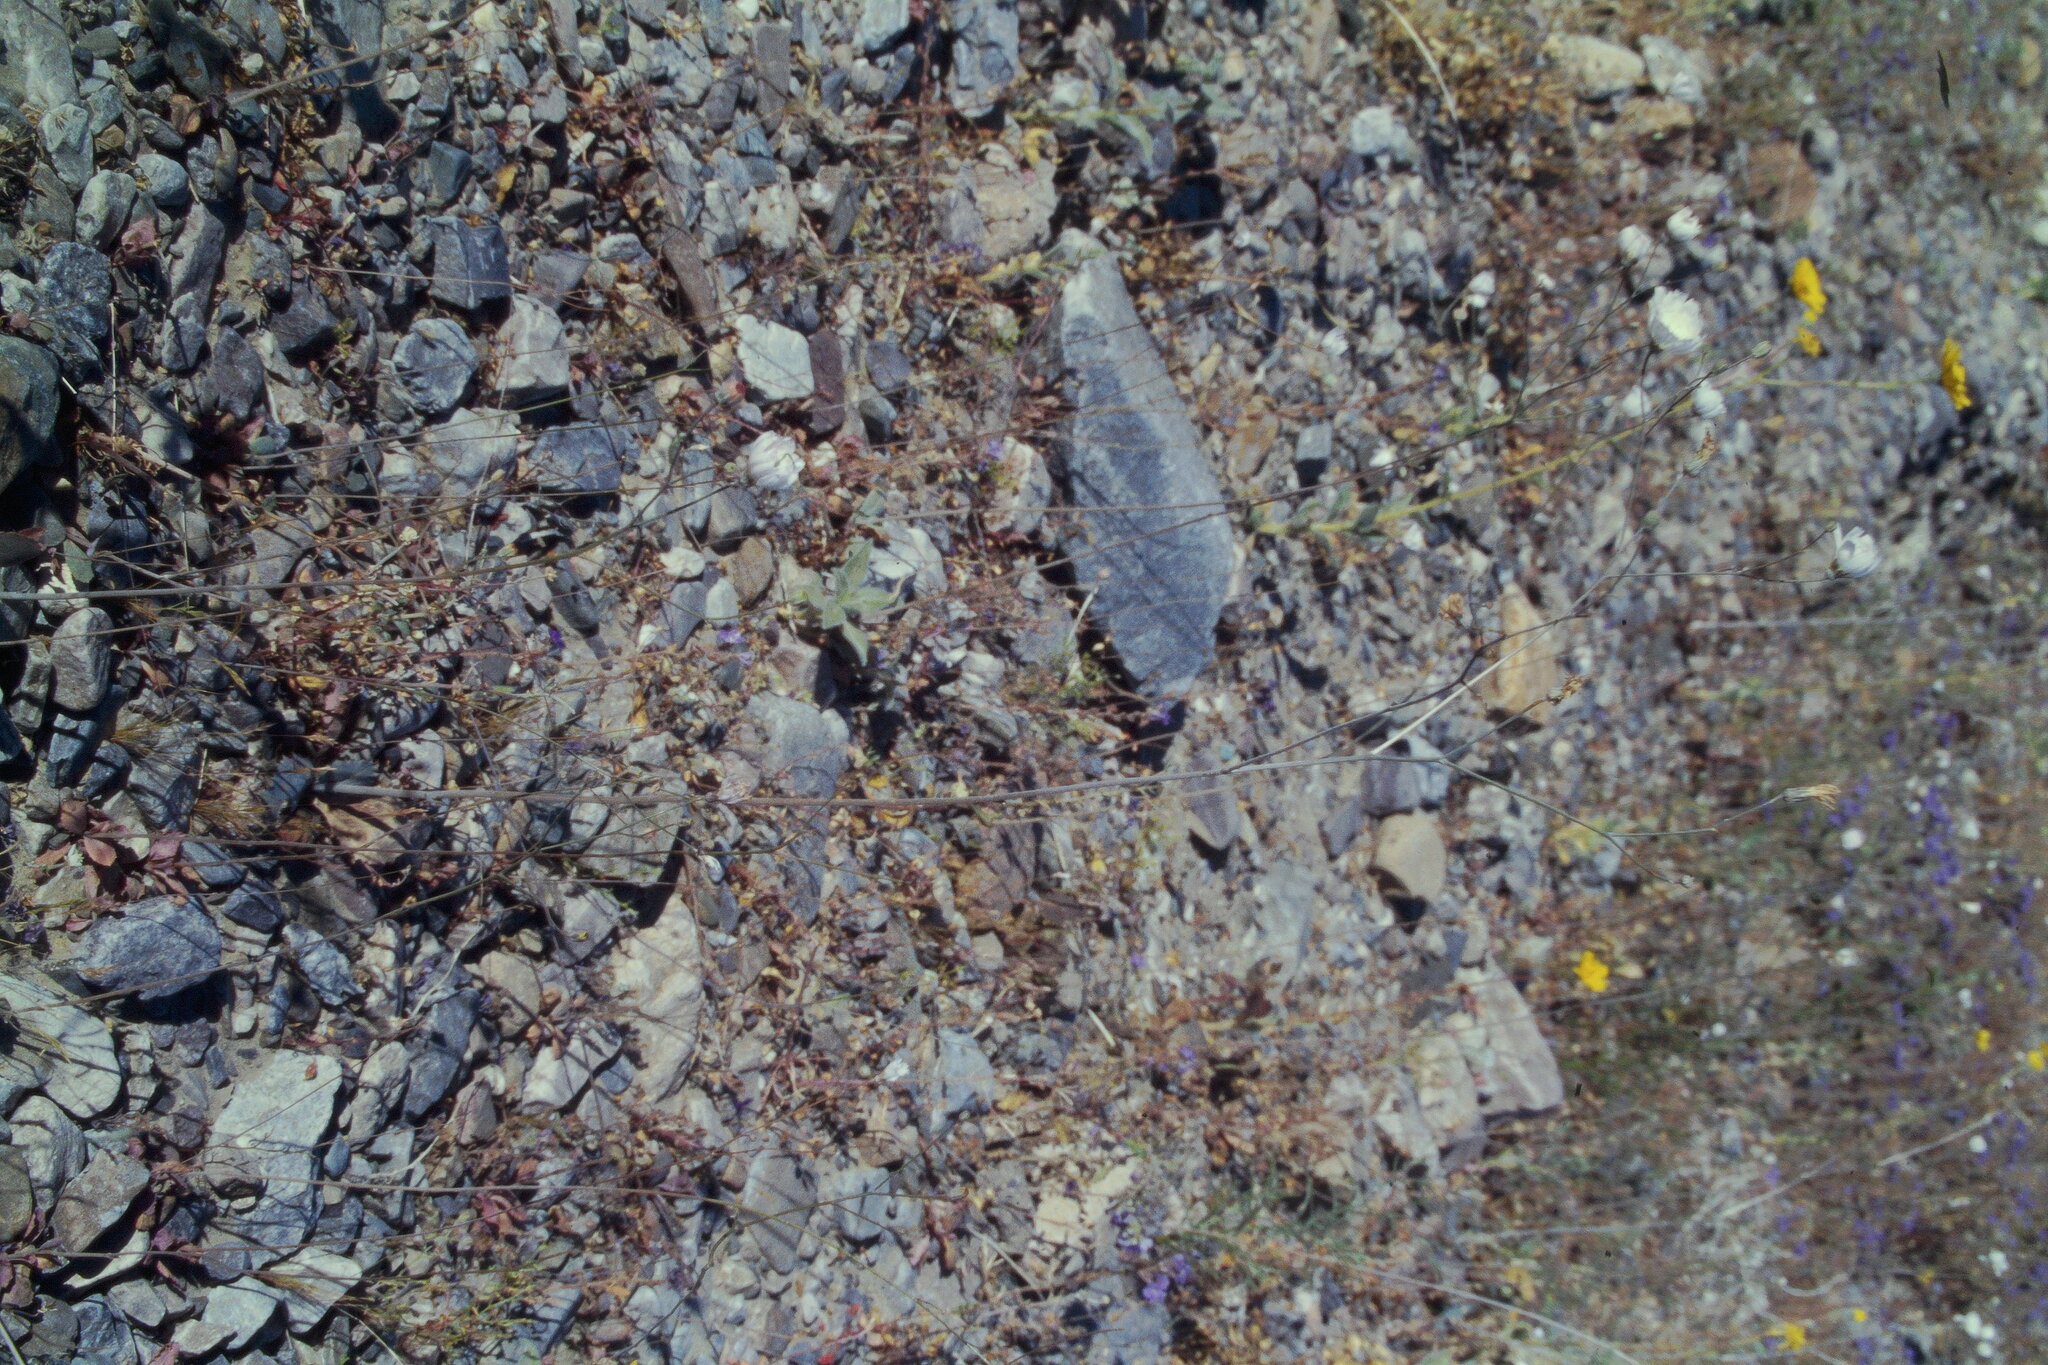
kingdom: Plantae
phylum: Tracheophyta
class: Magnoliopsida
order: Asterales
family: Asteraceae
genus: Atrichoseris
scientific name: Atrichoseris platyphylla
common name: Tobaccoweed
